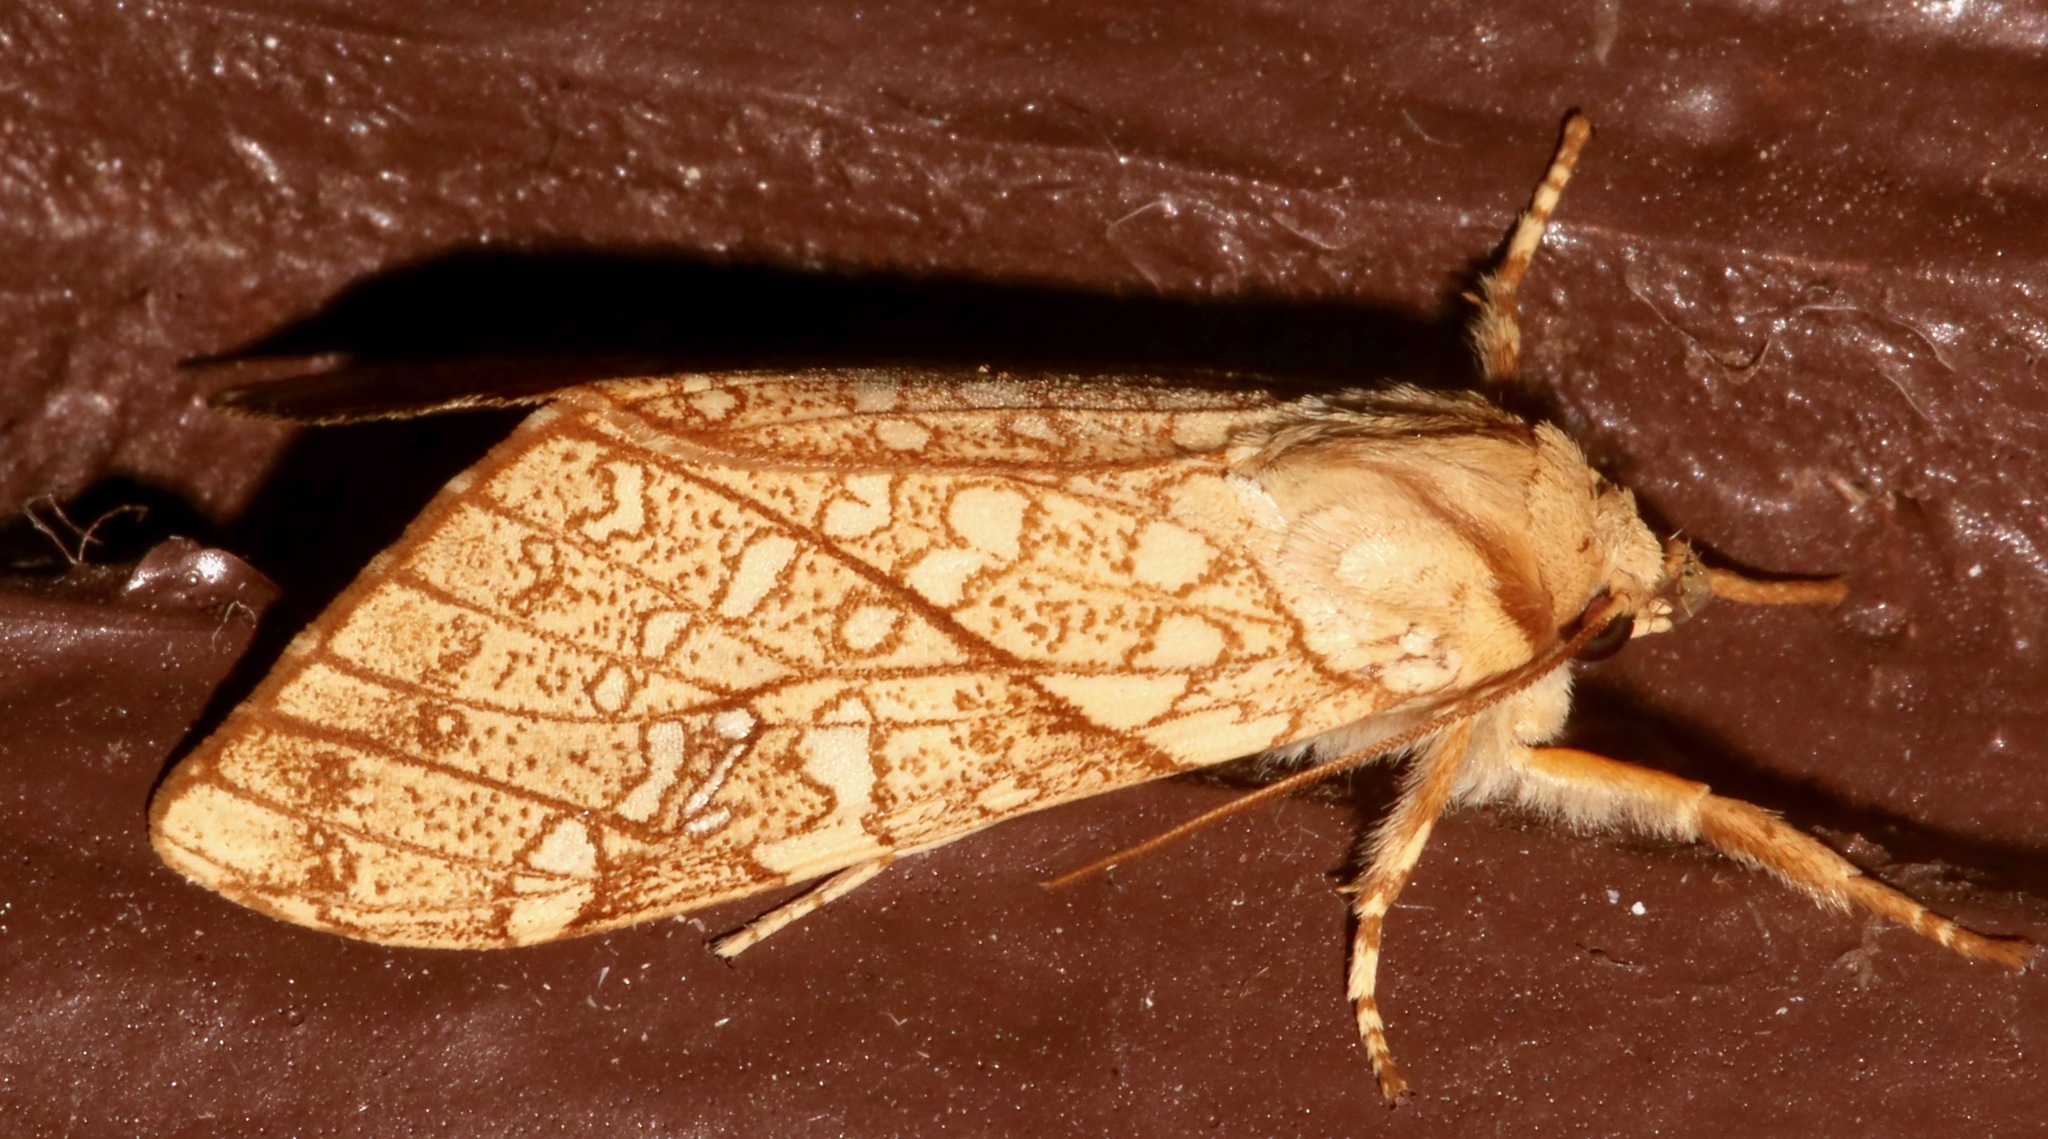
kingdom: Animalia
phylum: Arthropoda
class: Insecta
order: Lepidoptera
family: Erebidae
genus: Lophocampa
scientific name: Lophocampa mixta
